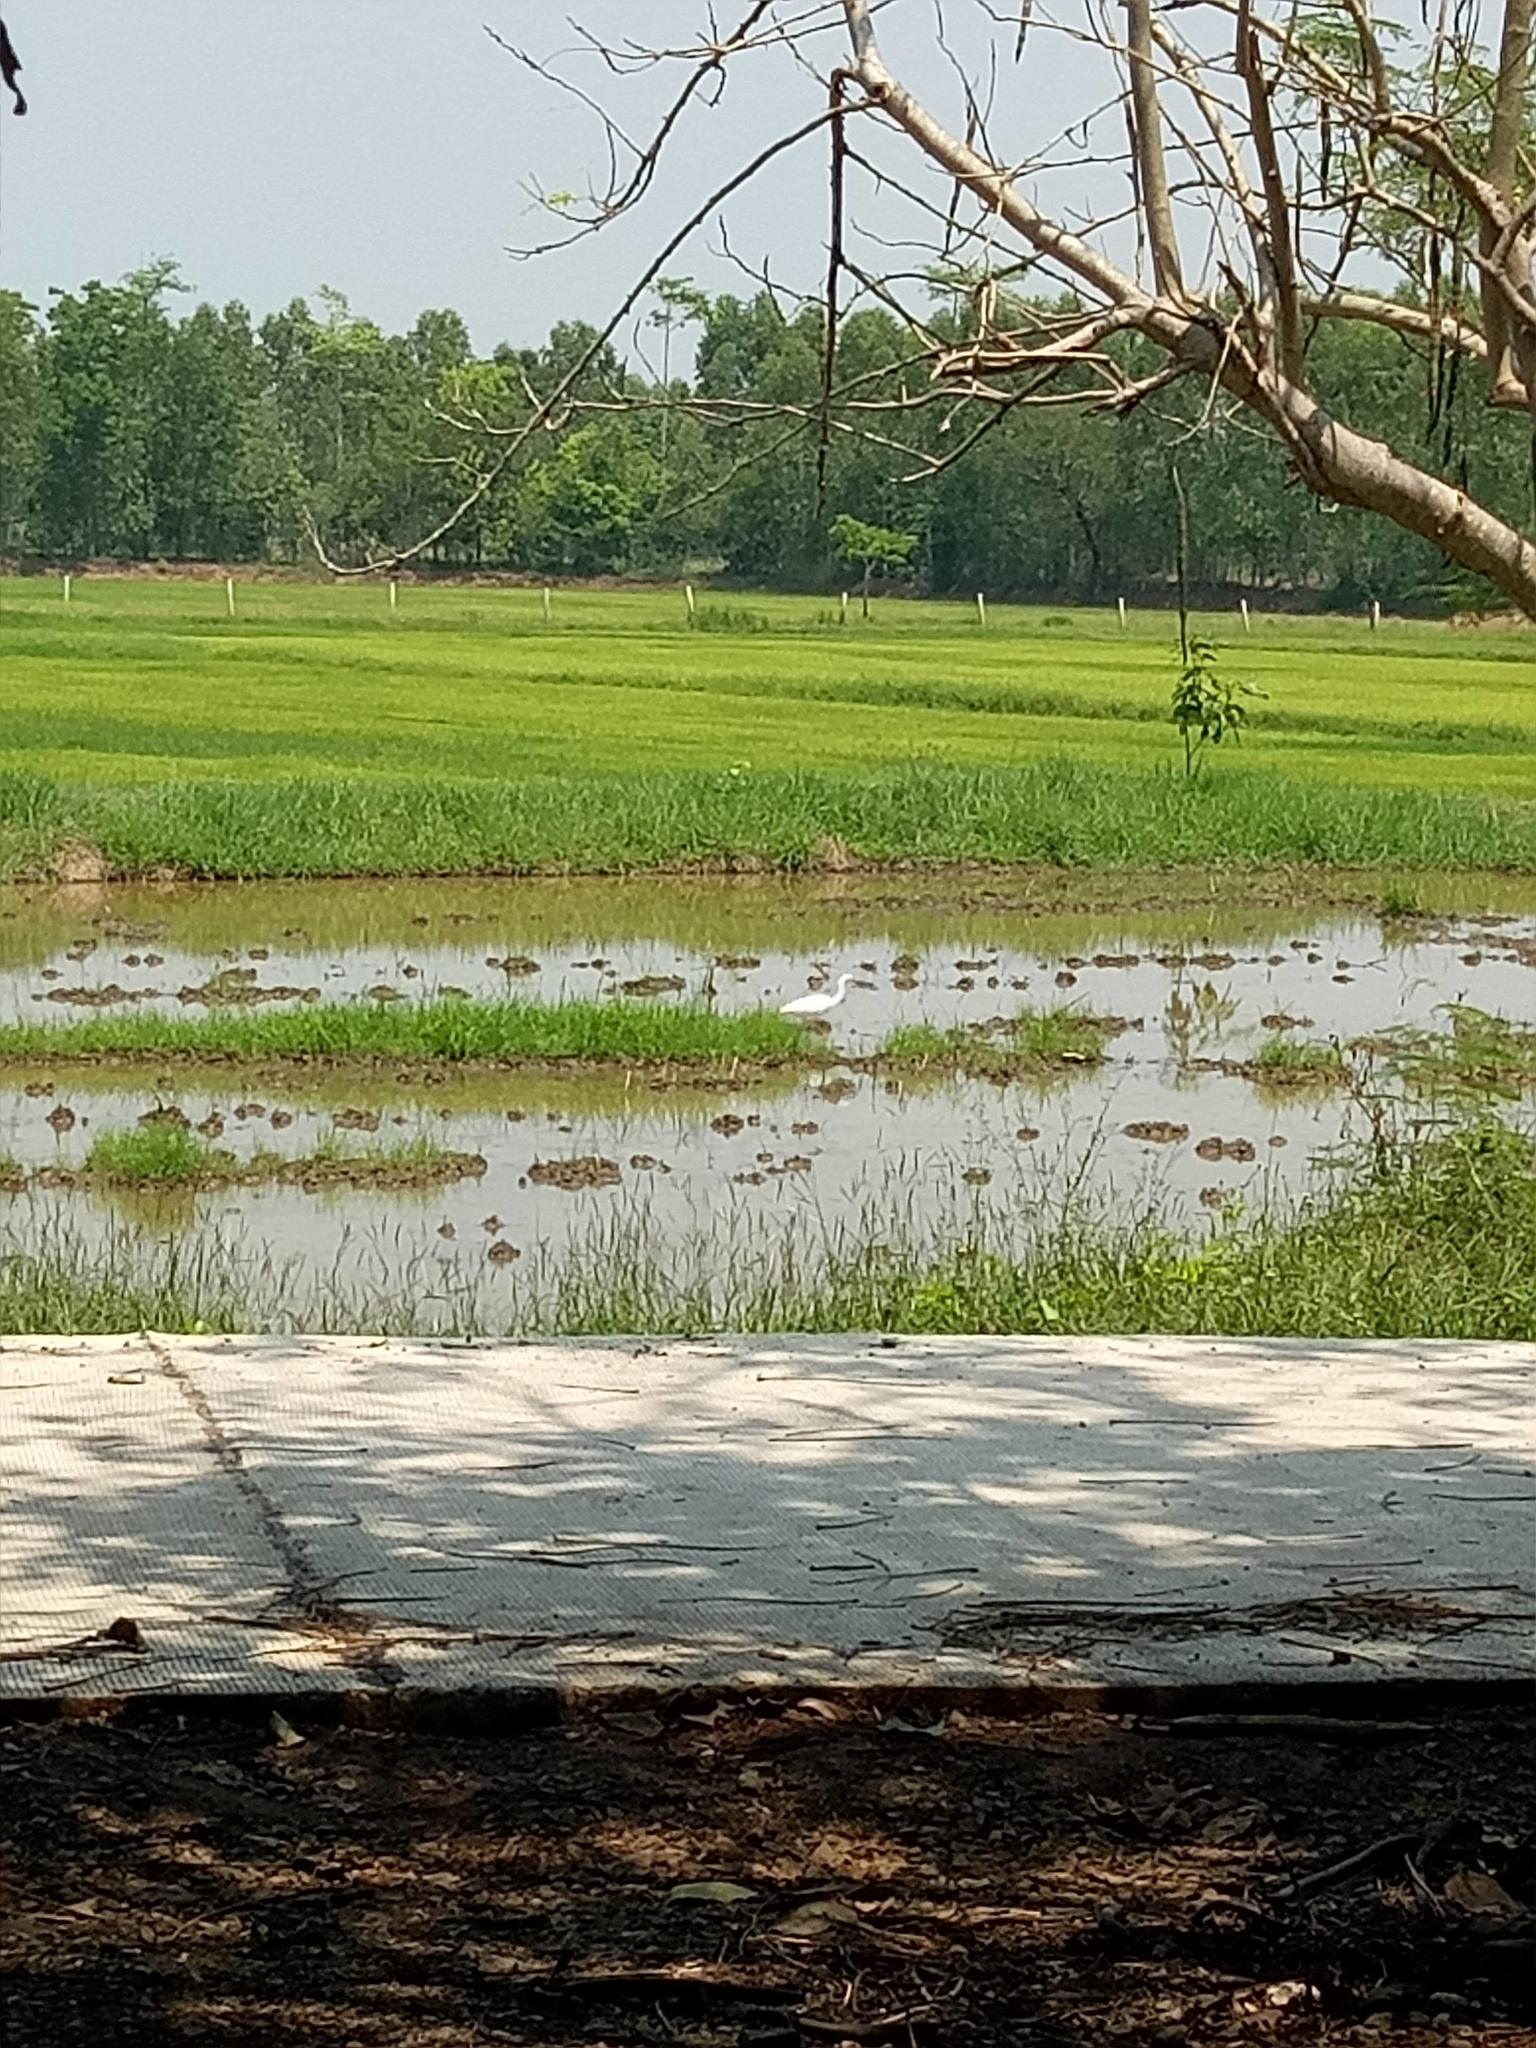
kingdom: Animalia
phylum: Chordata
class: Aves
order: Pelecaniformes
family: Ardeidae
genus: Egretta
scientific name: Egretta garzetta
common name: Little egret
